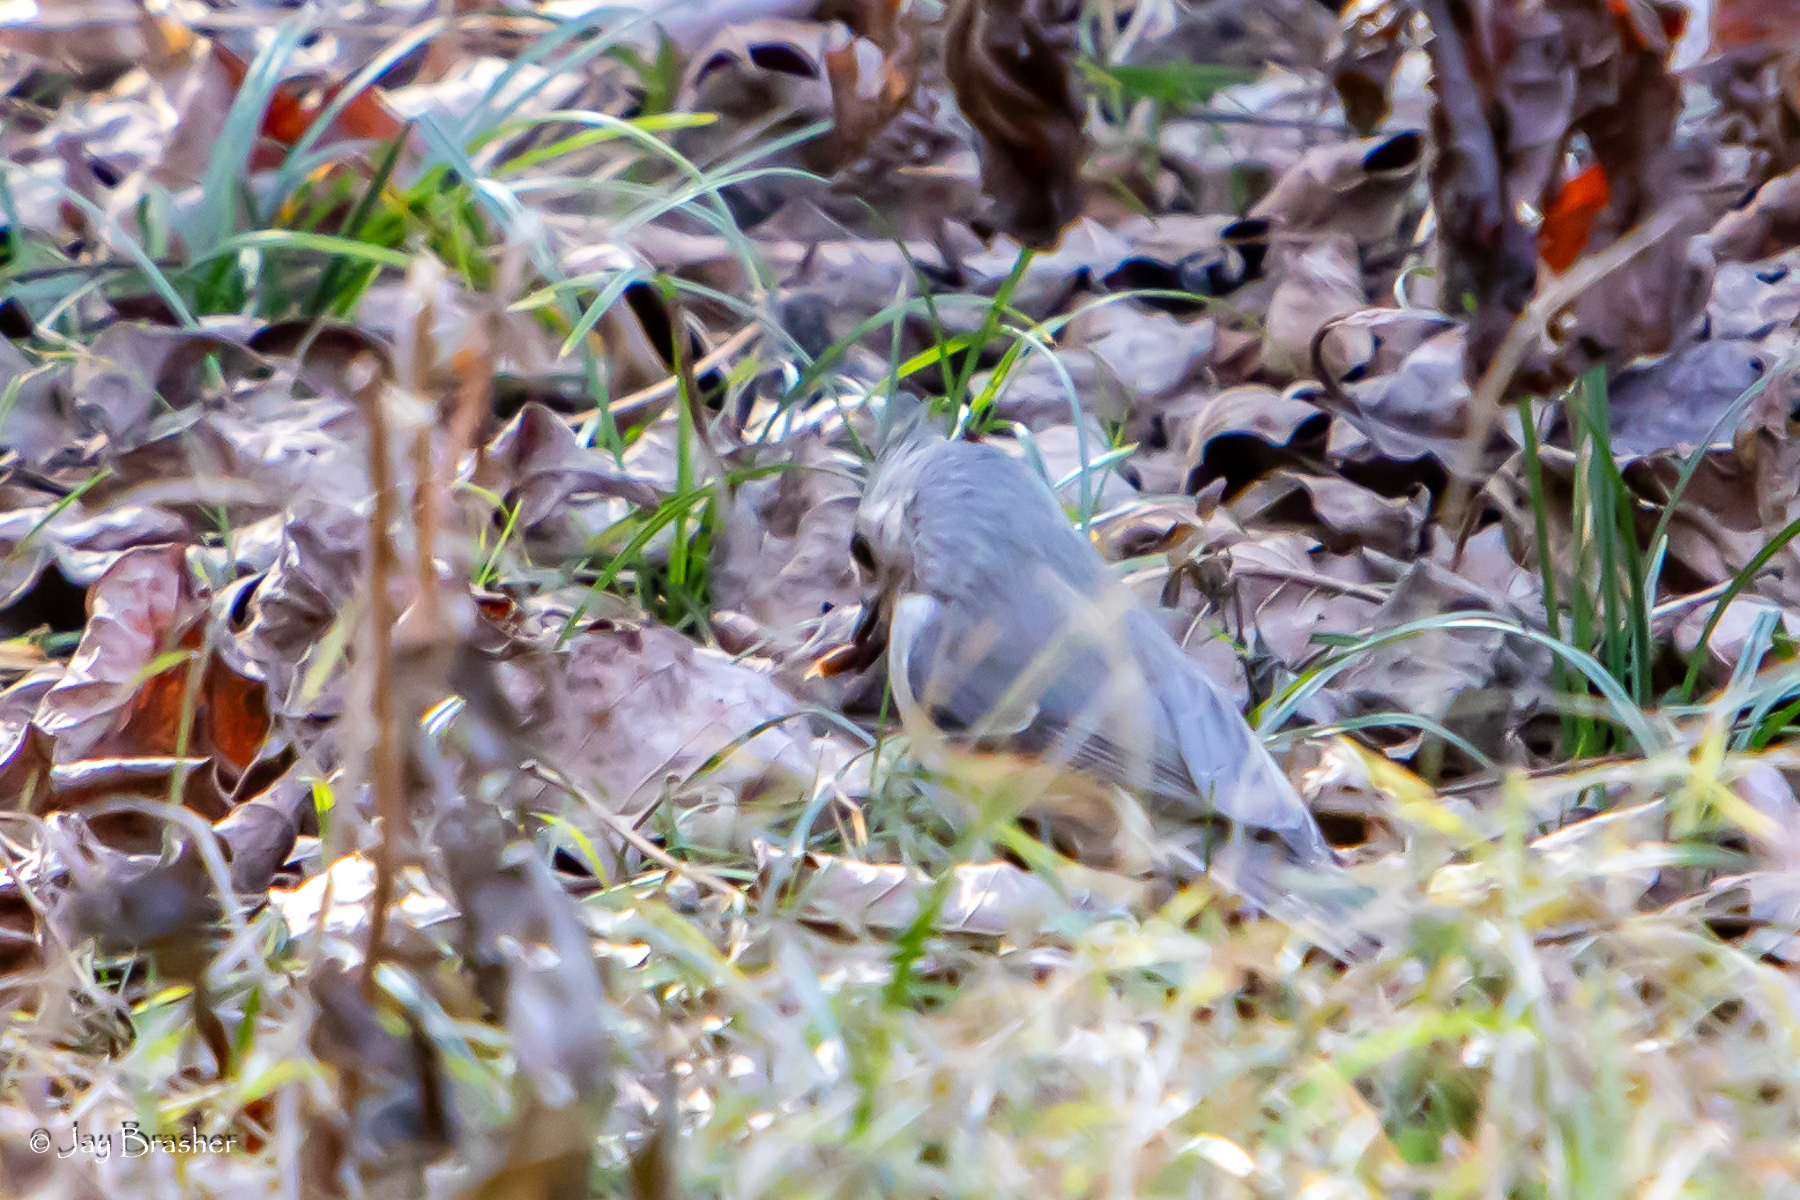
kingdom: Animalia
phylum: Chordata
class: Aves
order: Passeriformes
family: Paridae
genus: Baeolophus
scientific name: Baeolophus bicolor
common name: Tufted titmouse
